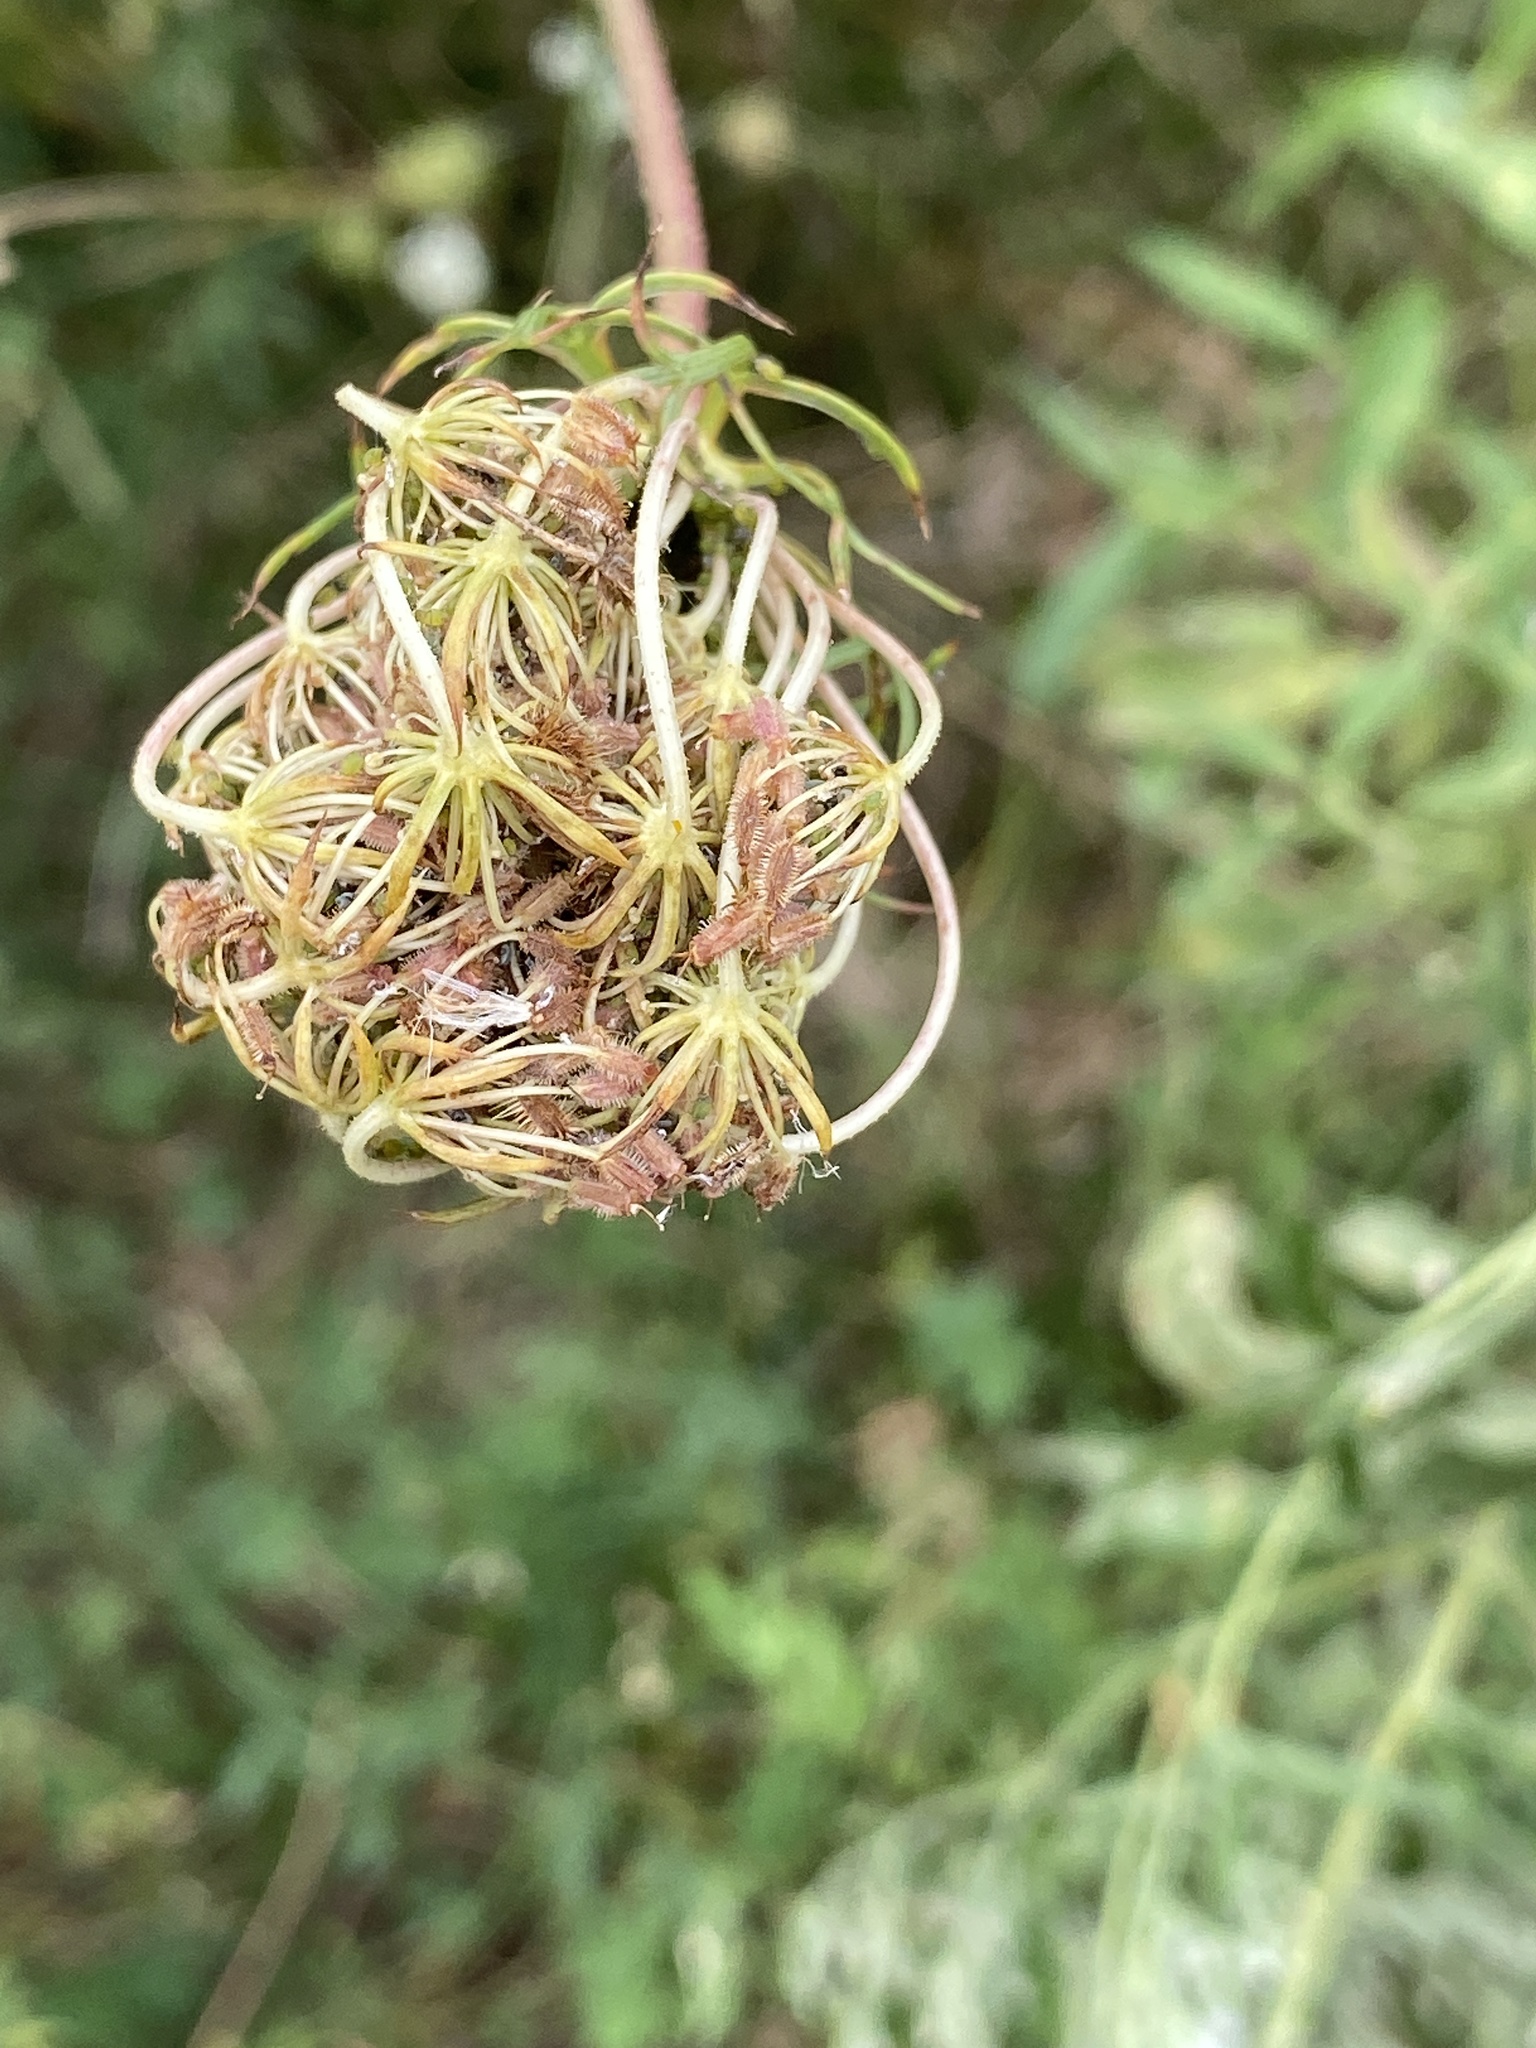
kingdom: Plantae
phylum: Tracheophyta
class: Magnoliopsida
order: Apiales
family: Apiaceae
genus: Daucus
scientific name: Daucus carota
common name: Wild carrot
